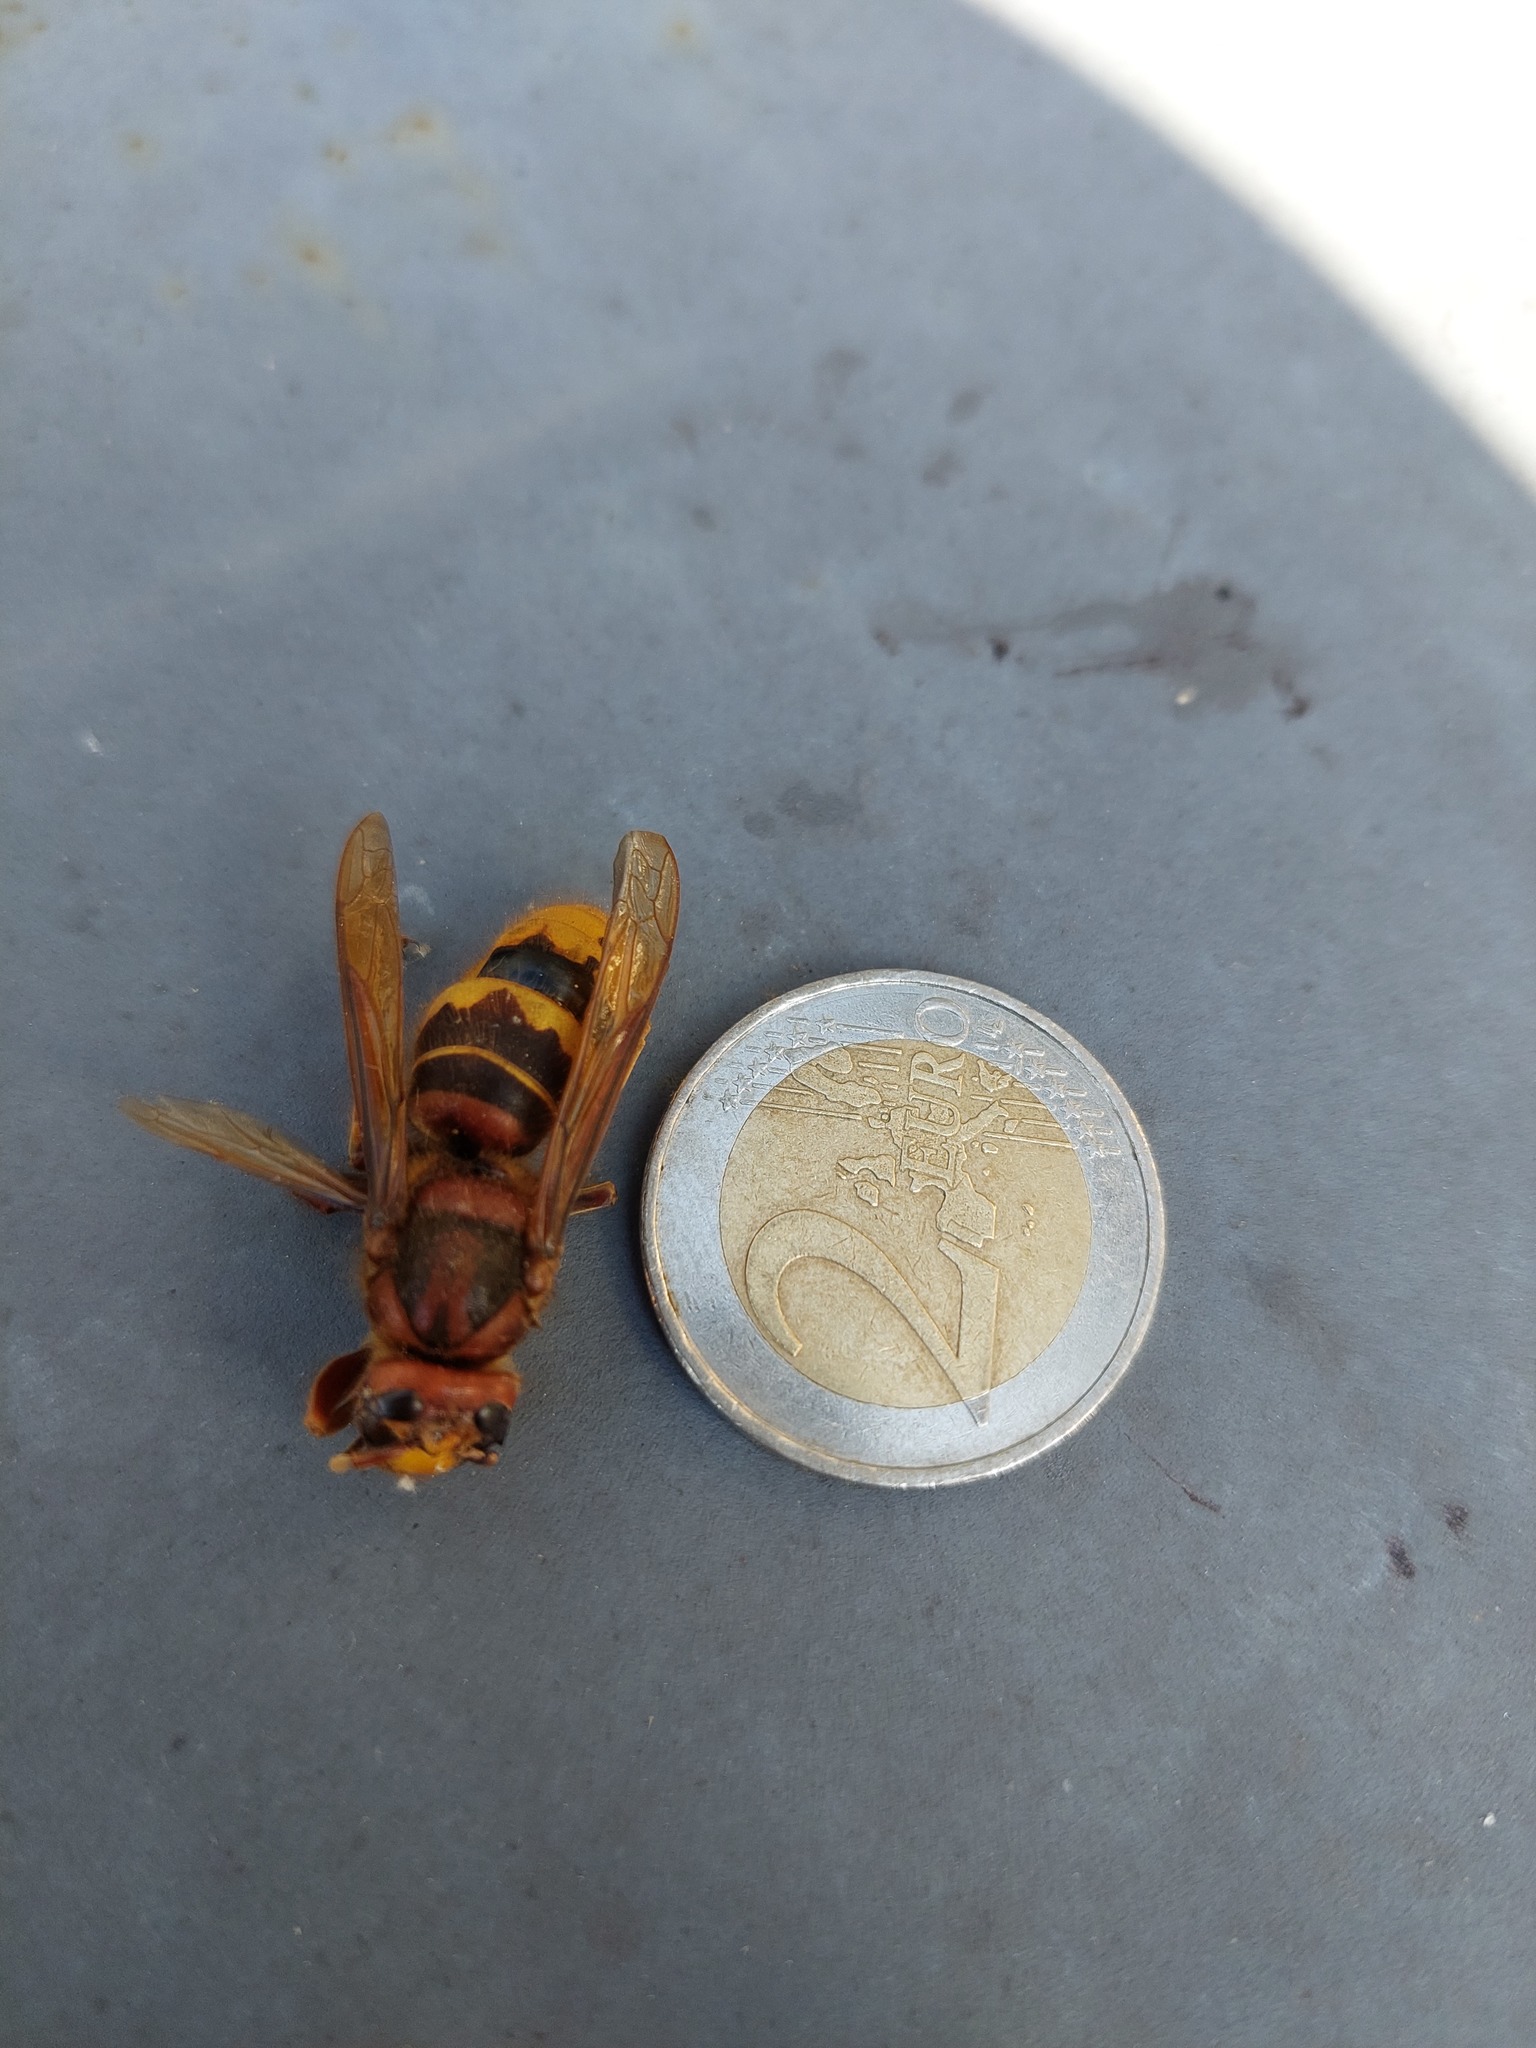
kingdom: Animalia
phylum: Arthropoda
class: Insecta
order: Hymenoptera
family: Vespidae
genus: Vespa
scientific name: Vespa crabro
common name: Hornet
